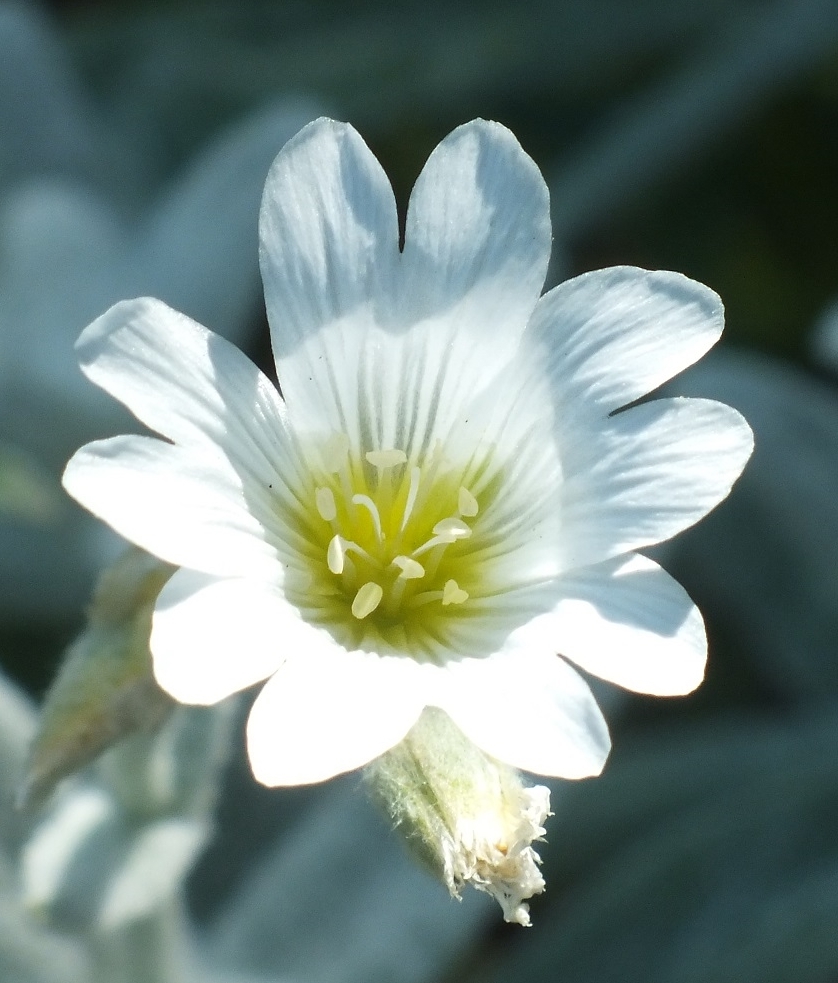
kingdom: Plantae
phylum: Tracheophyta
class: Magnoliopsida
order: Caryophyllales
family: Caryophyllaceae
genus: Cerastium
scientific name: Cerastium biebersteinii
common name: Snow-in-summer
